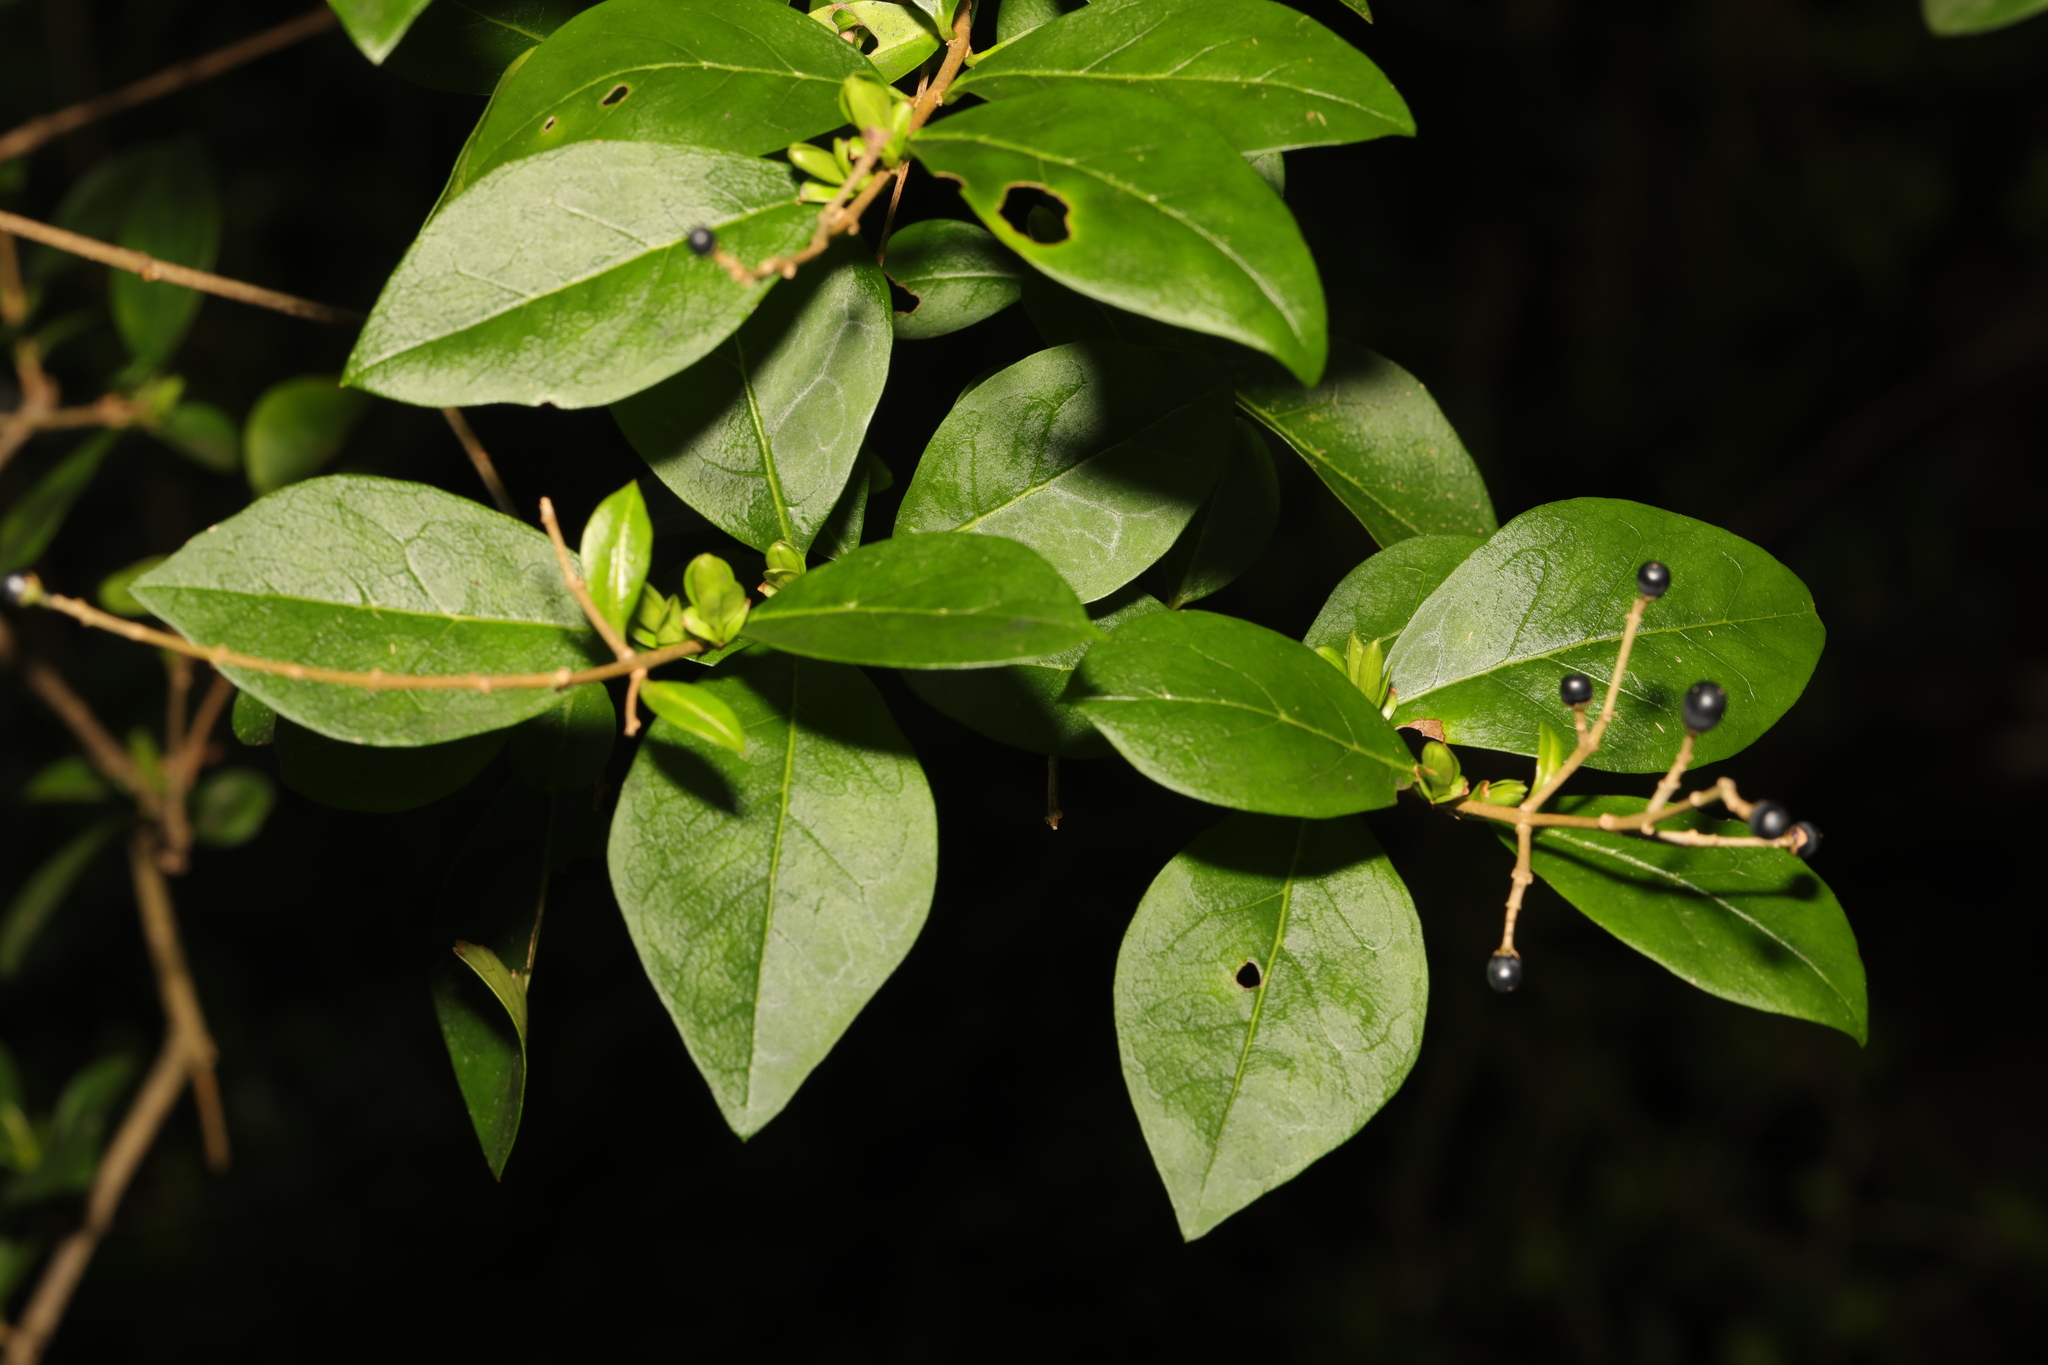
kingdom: Plantae
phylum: Tracheophyta
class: Magnoliopsida
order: Lamiales
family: Oleaceae
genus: Ligustrum
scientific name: Ligustrum ovalifolium
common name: California privet
